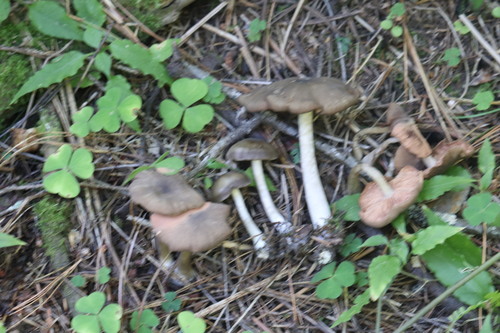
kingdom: Fungi
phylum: Basidiomycota
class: Agaricomycetes
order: Agaricales
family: Entolomataceae
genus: Entoloma
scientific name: Entoloma
